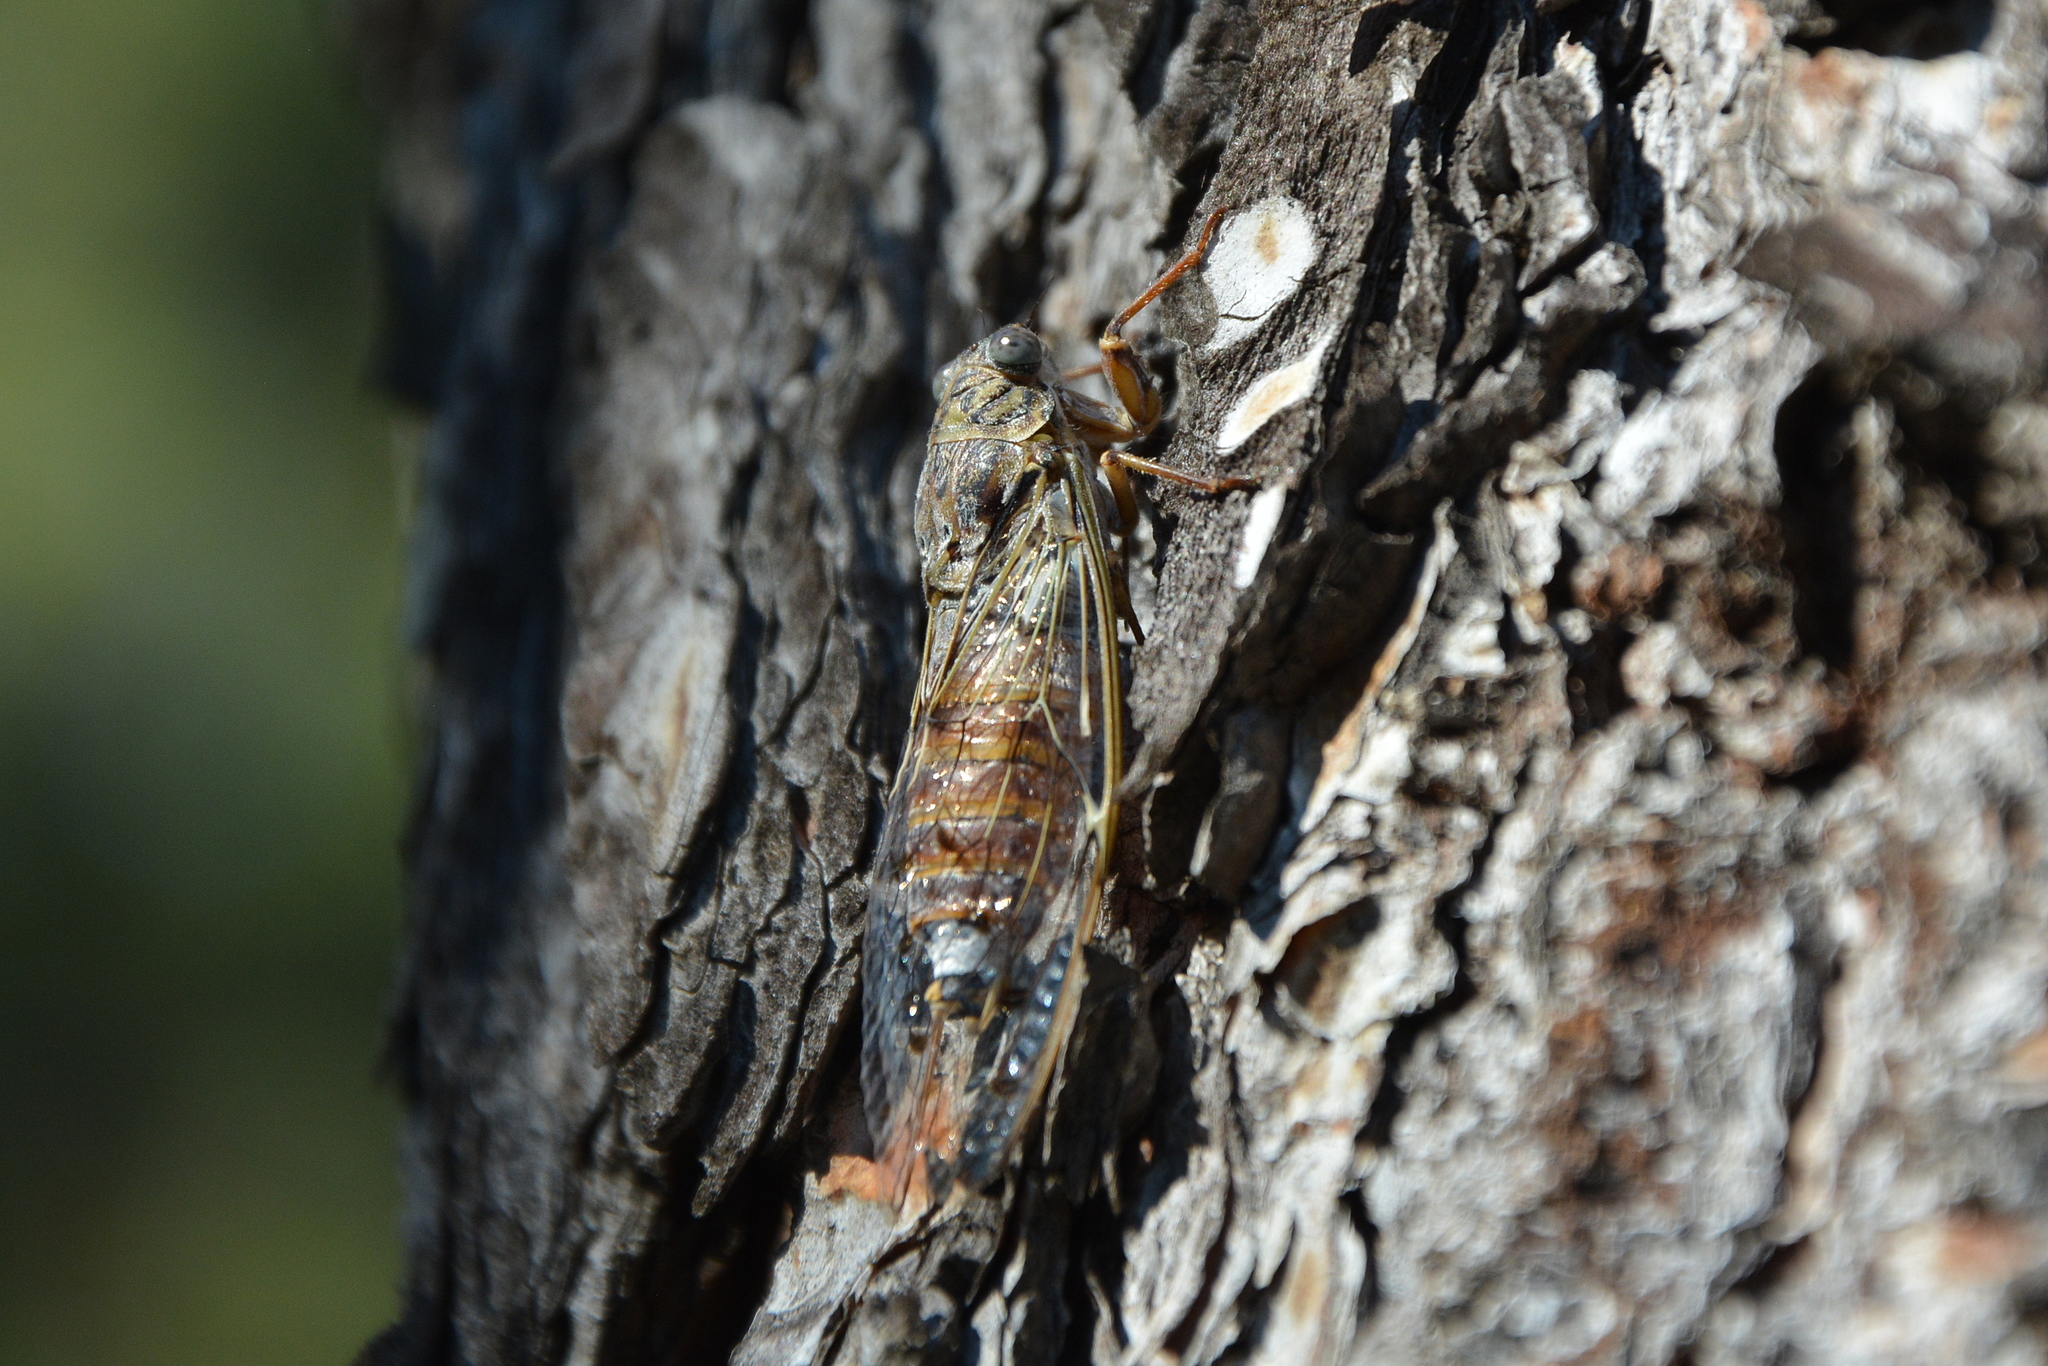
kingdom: Animalia
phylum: Arthropoda
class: Insecta
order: Hemiptera
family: Cicadidae
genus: Cicada
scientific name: Cicada orni
